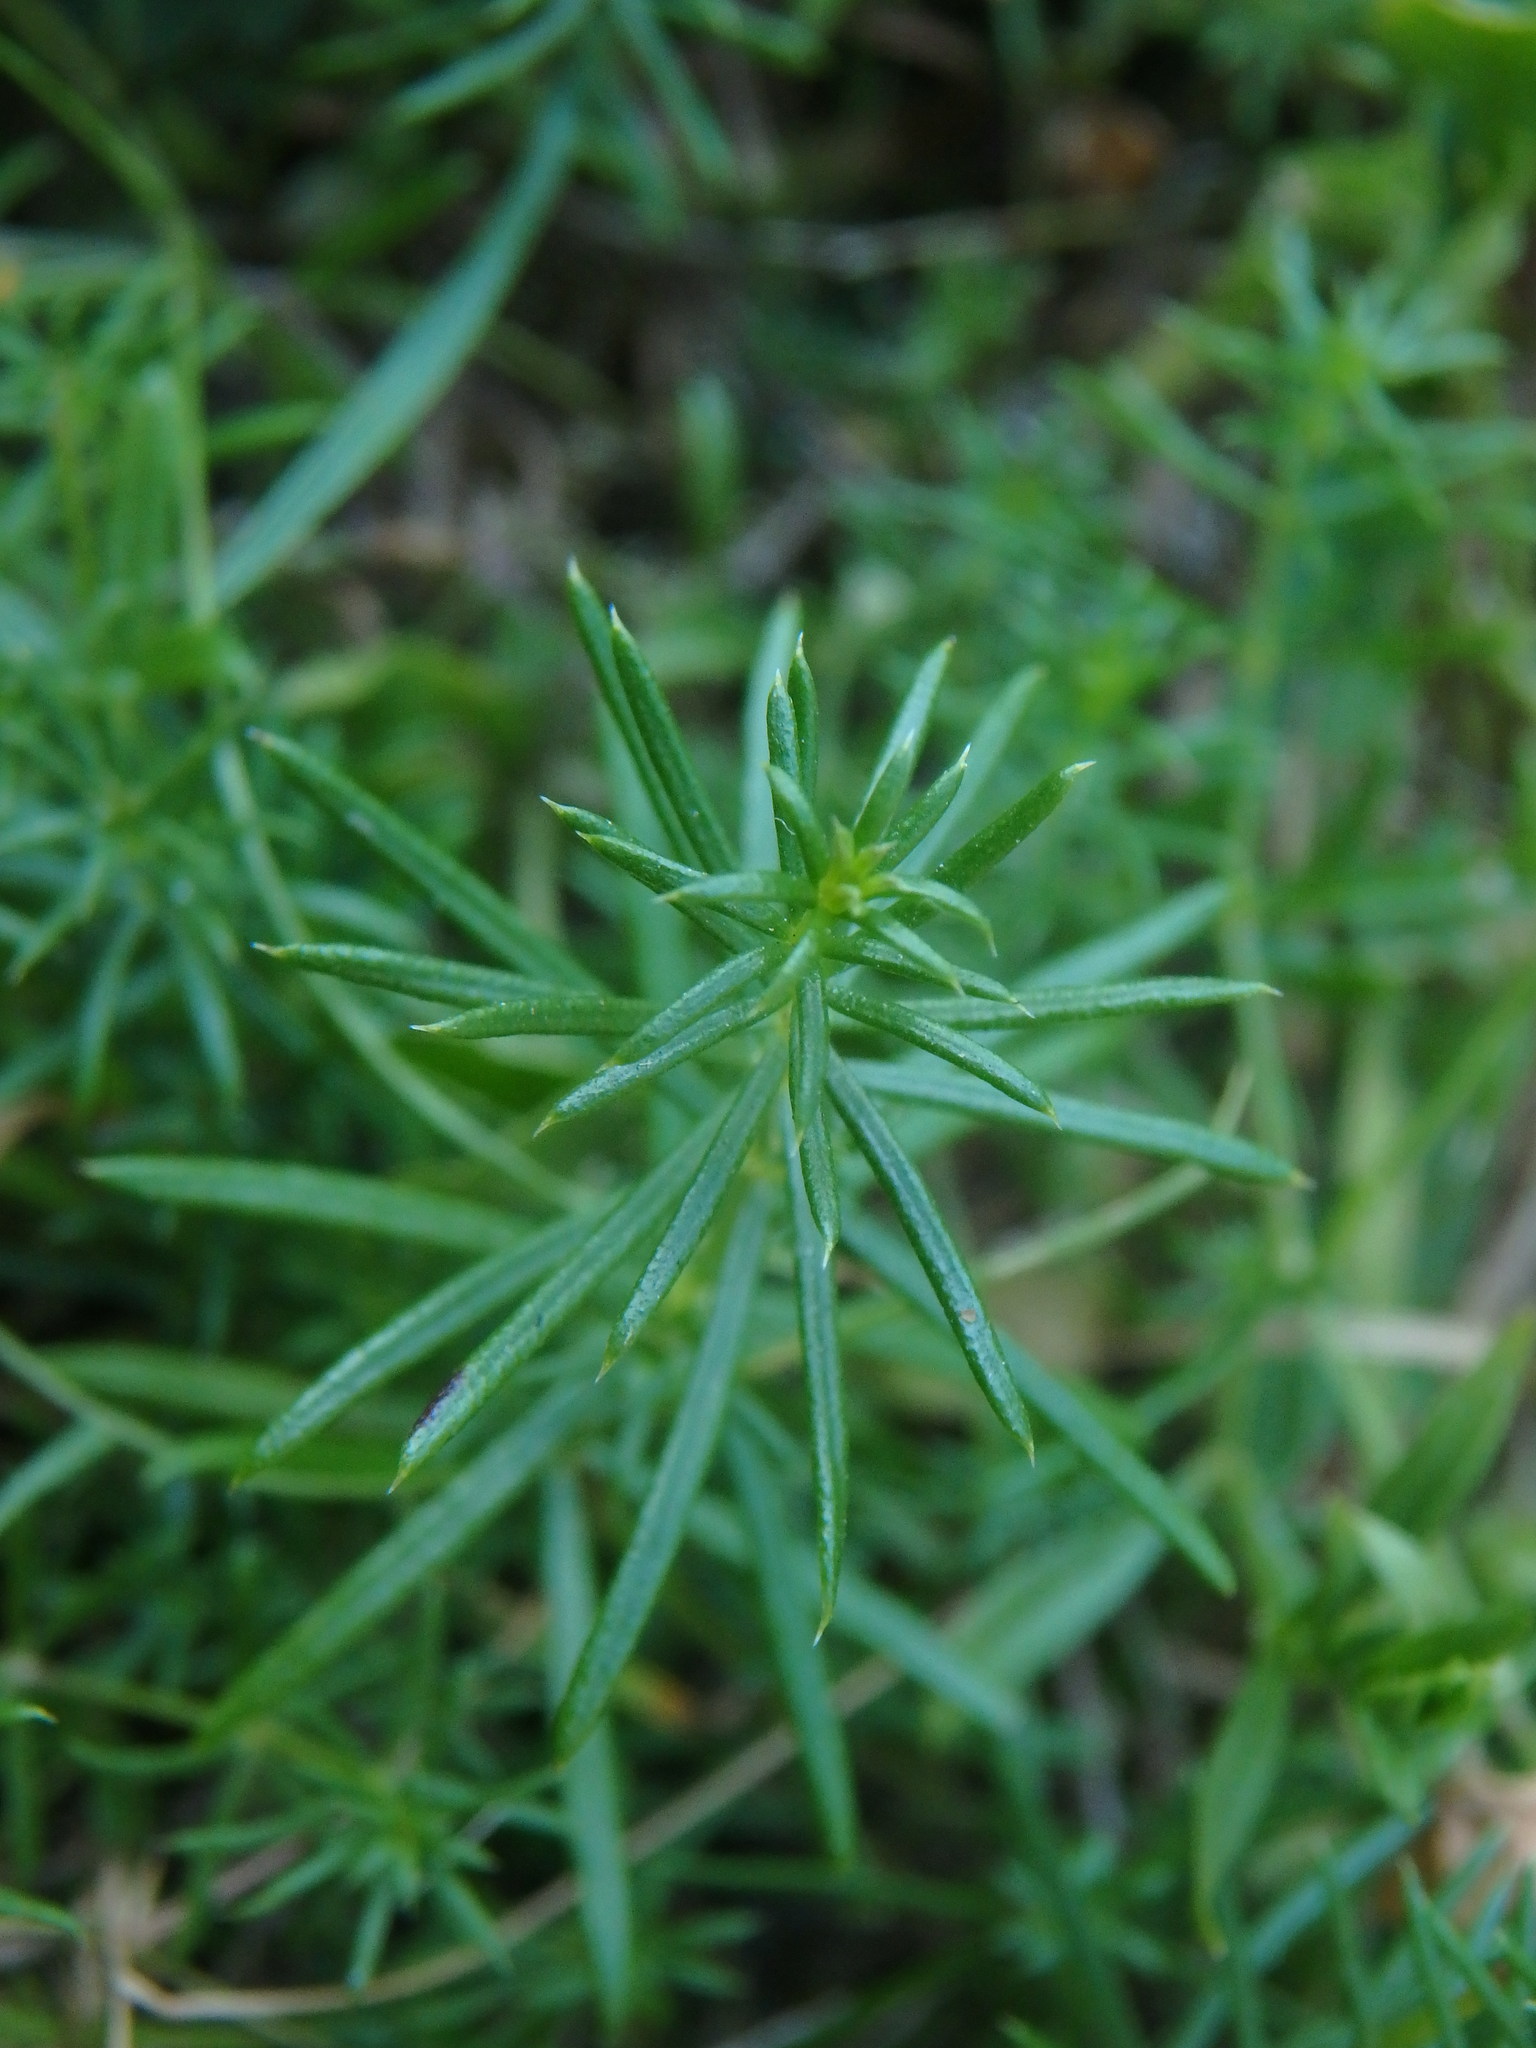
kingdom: Plantae
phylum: Tracheophyta
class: Magnoliopsida
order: Gentianales
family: Rubiaceae
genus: Galium
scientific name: Galium verum
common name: Lady's bedstraw
